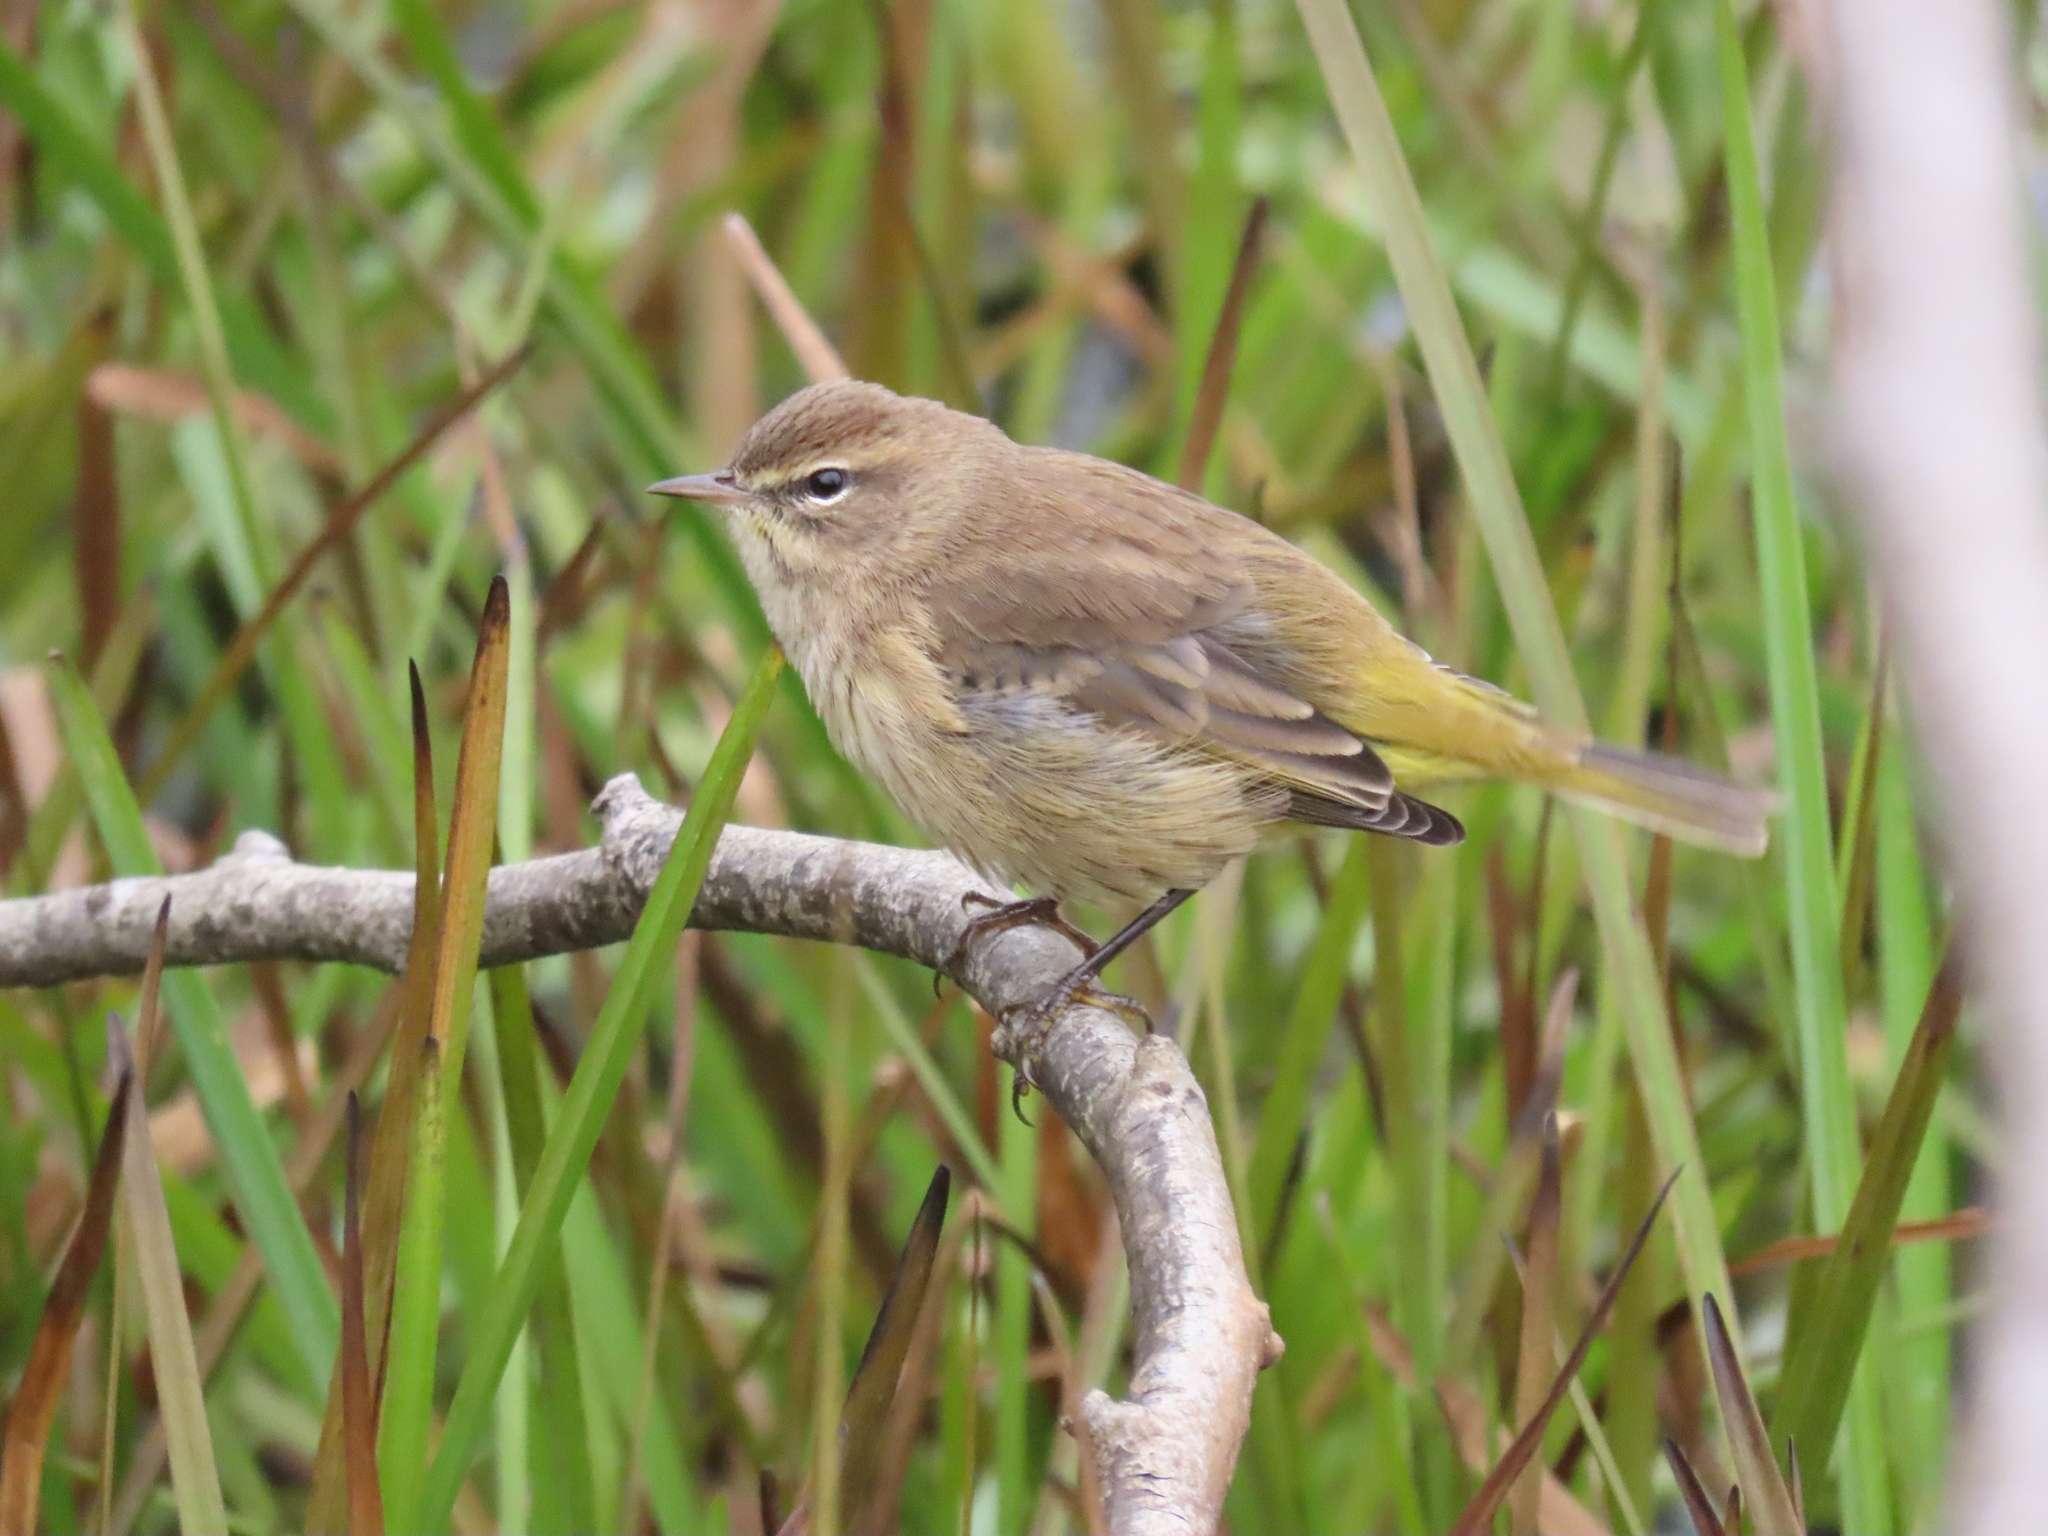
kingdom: Animalia
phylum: Chordata
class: Aves
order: Passeriformes
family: Parulidae
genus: Setophaga
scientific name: Setophaga palmarum
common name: Palm warbler
